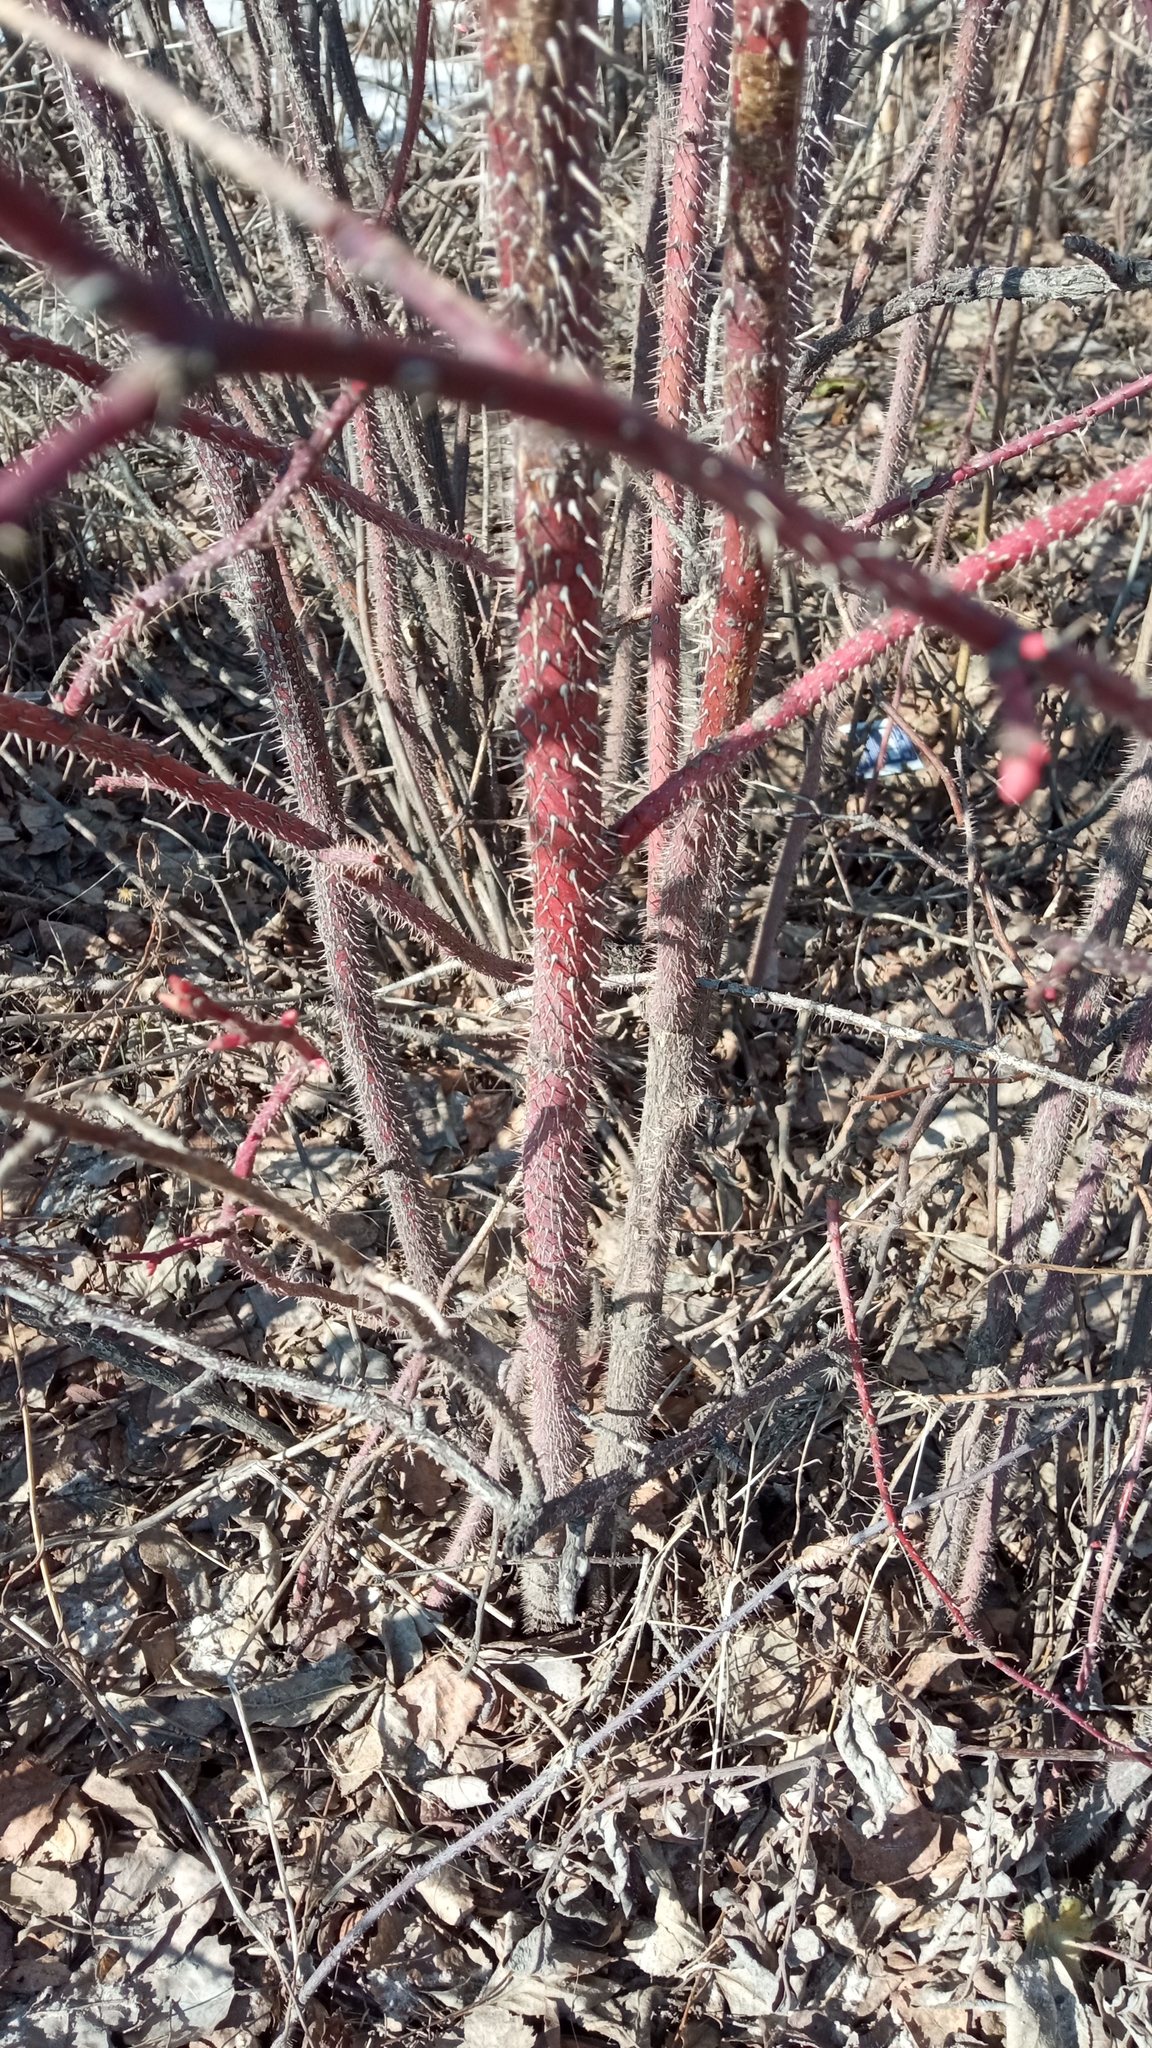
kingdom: Plantae
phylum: Tracheophyta
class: Magnoliopsida
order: Rosales
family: Rosaceae
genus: Rosa
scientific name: Rosa acicularis
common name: Prickly rose
